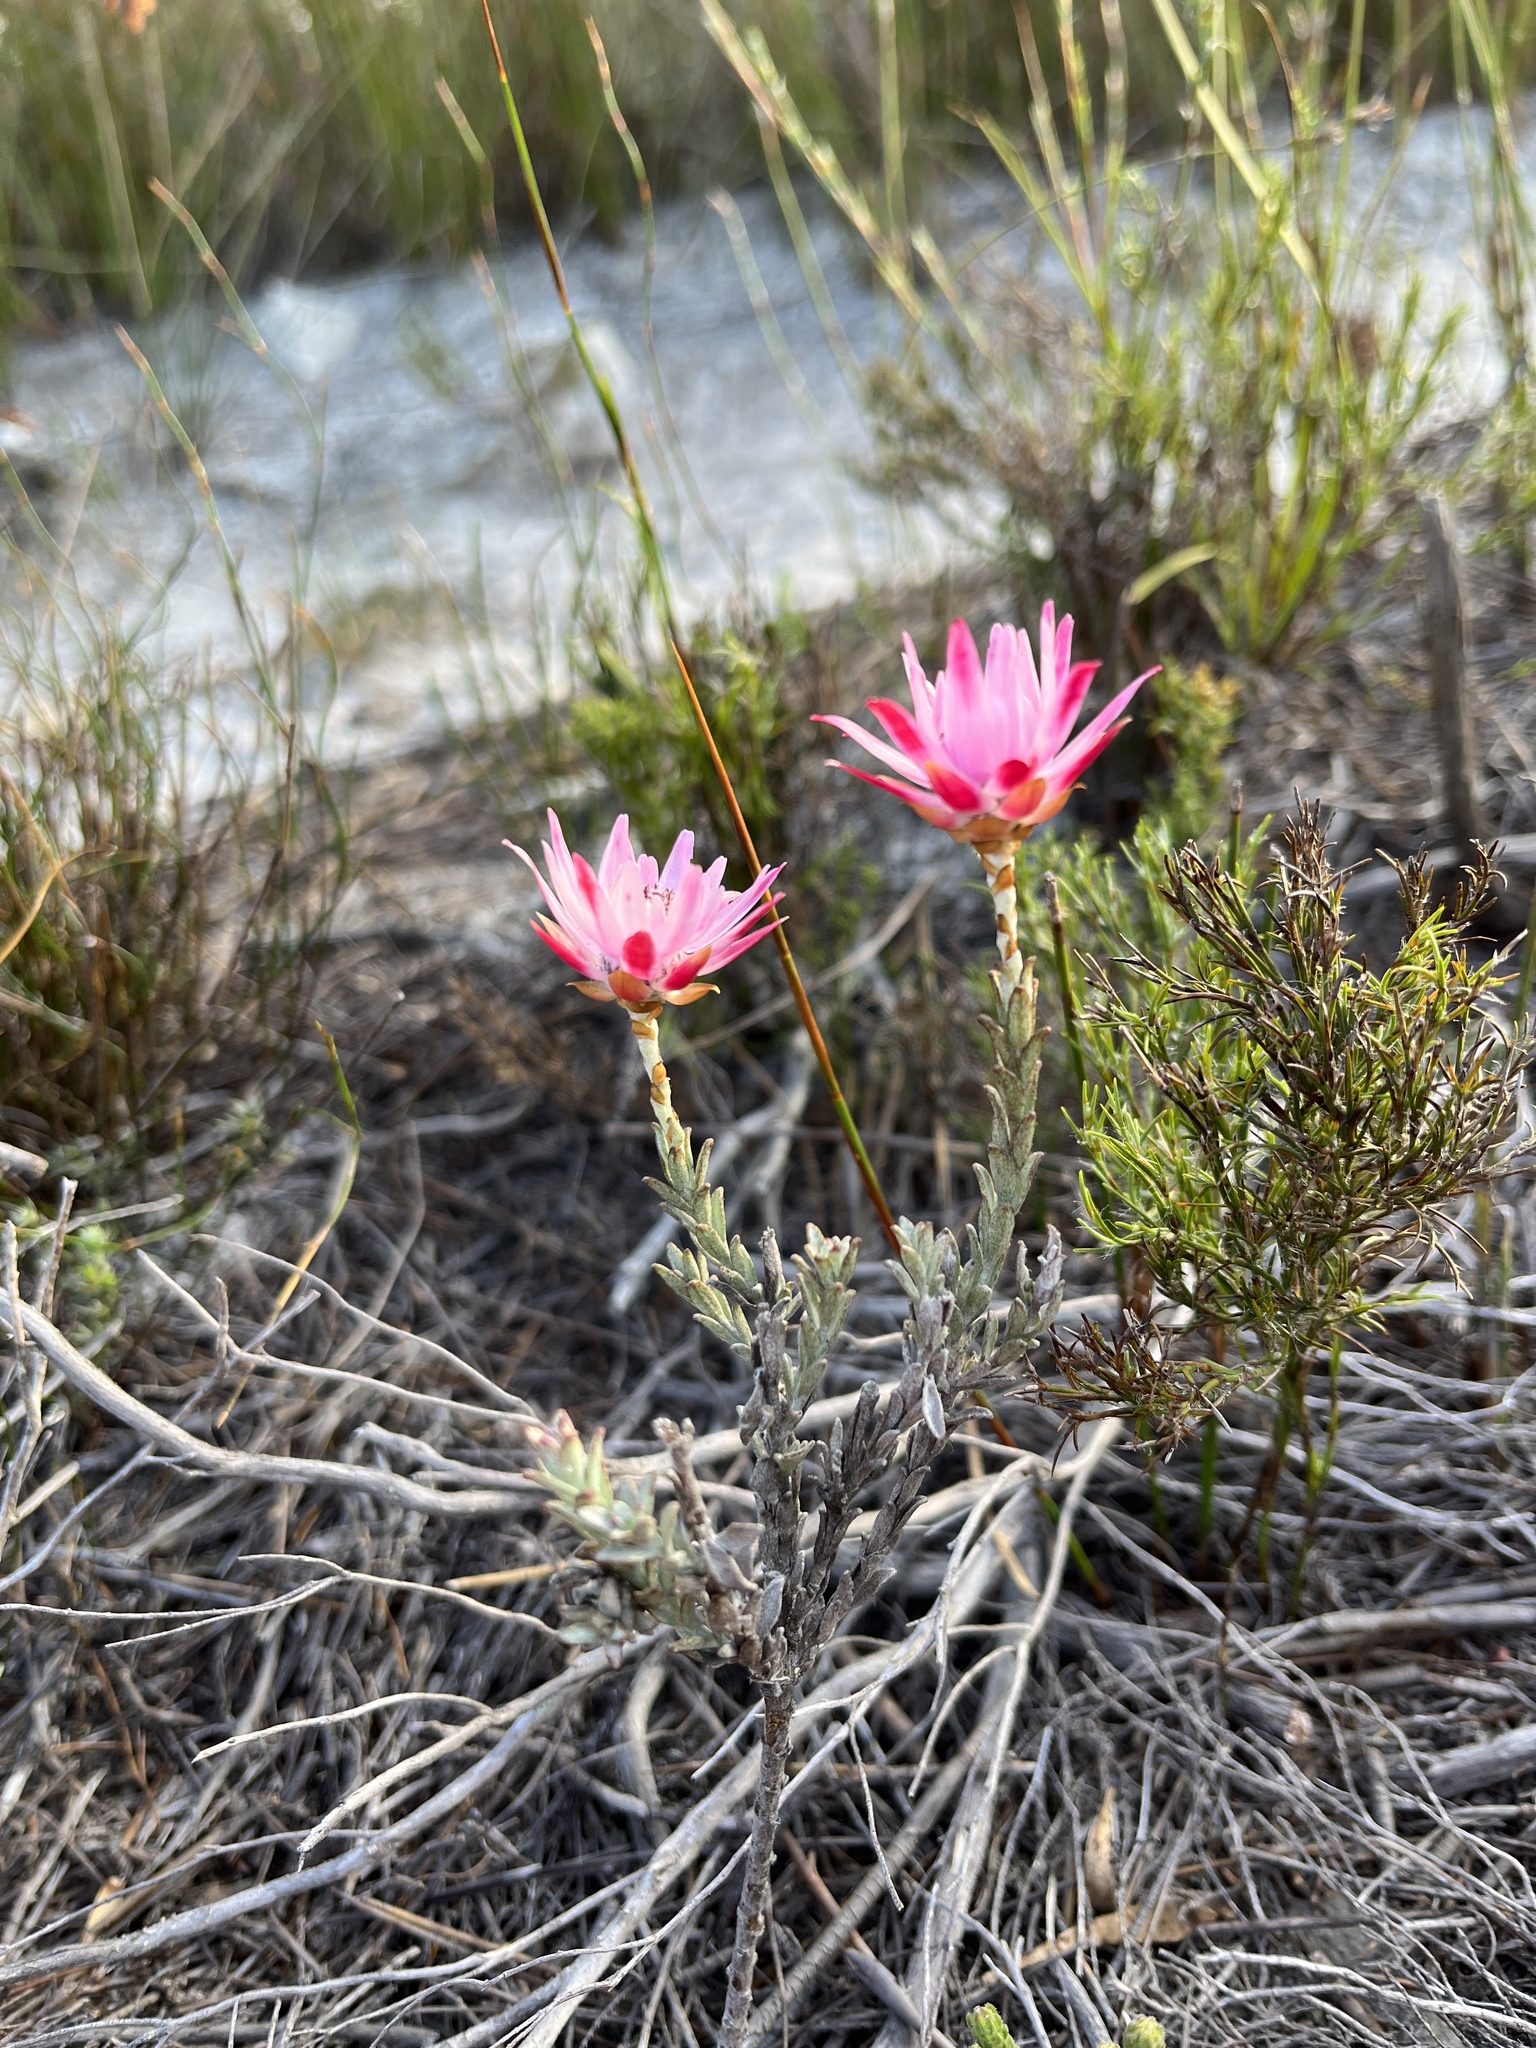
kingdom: Plantae
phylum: Tracheophyta
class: Magnoliopsida
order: Asterales
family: Asteraceae
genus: Syncarpha
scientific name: Syncarpha canescens
